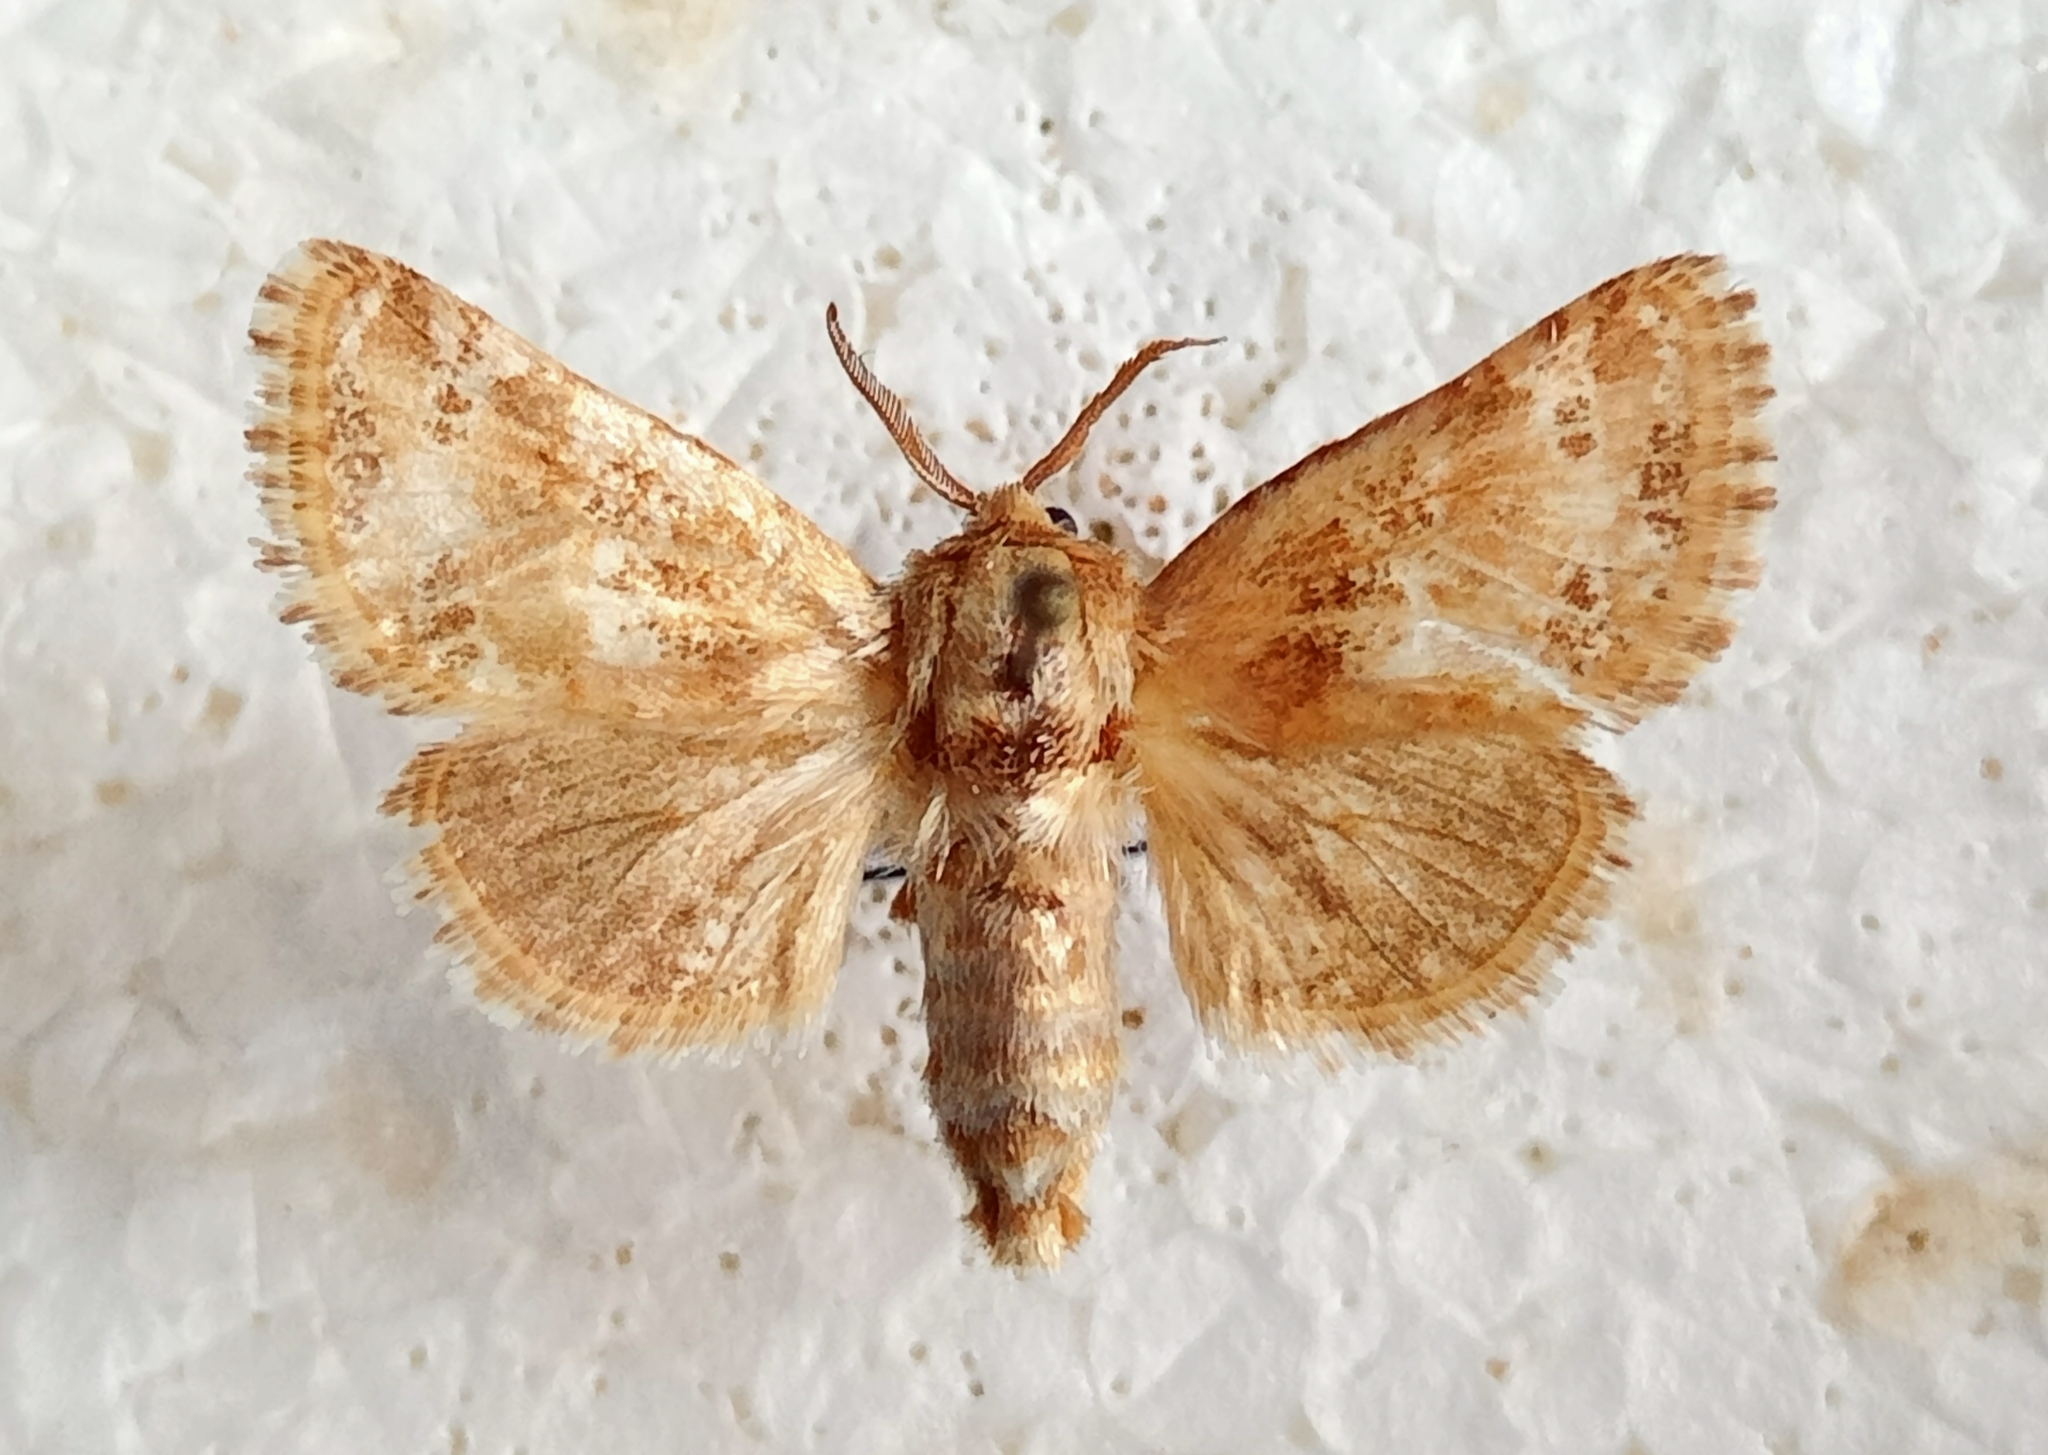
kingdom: Animalia
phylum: Arthropoda
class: Insecta
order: Lepidoptera
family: Cossidae
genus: Stygia
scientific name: Stygia mosulensis
